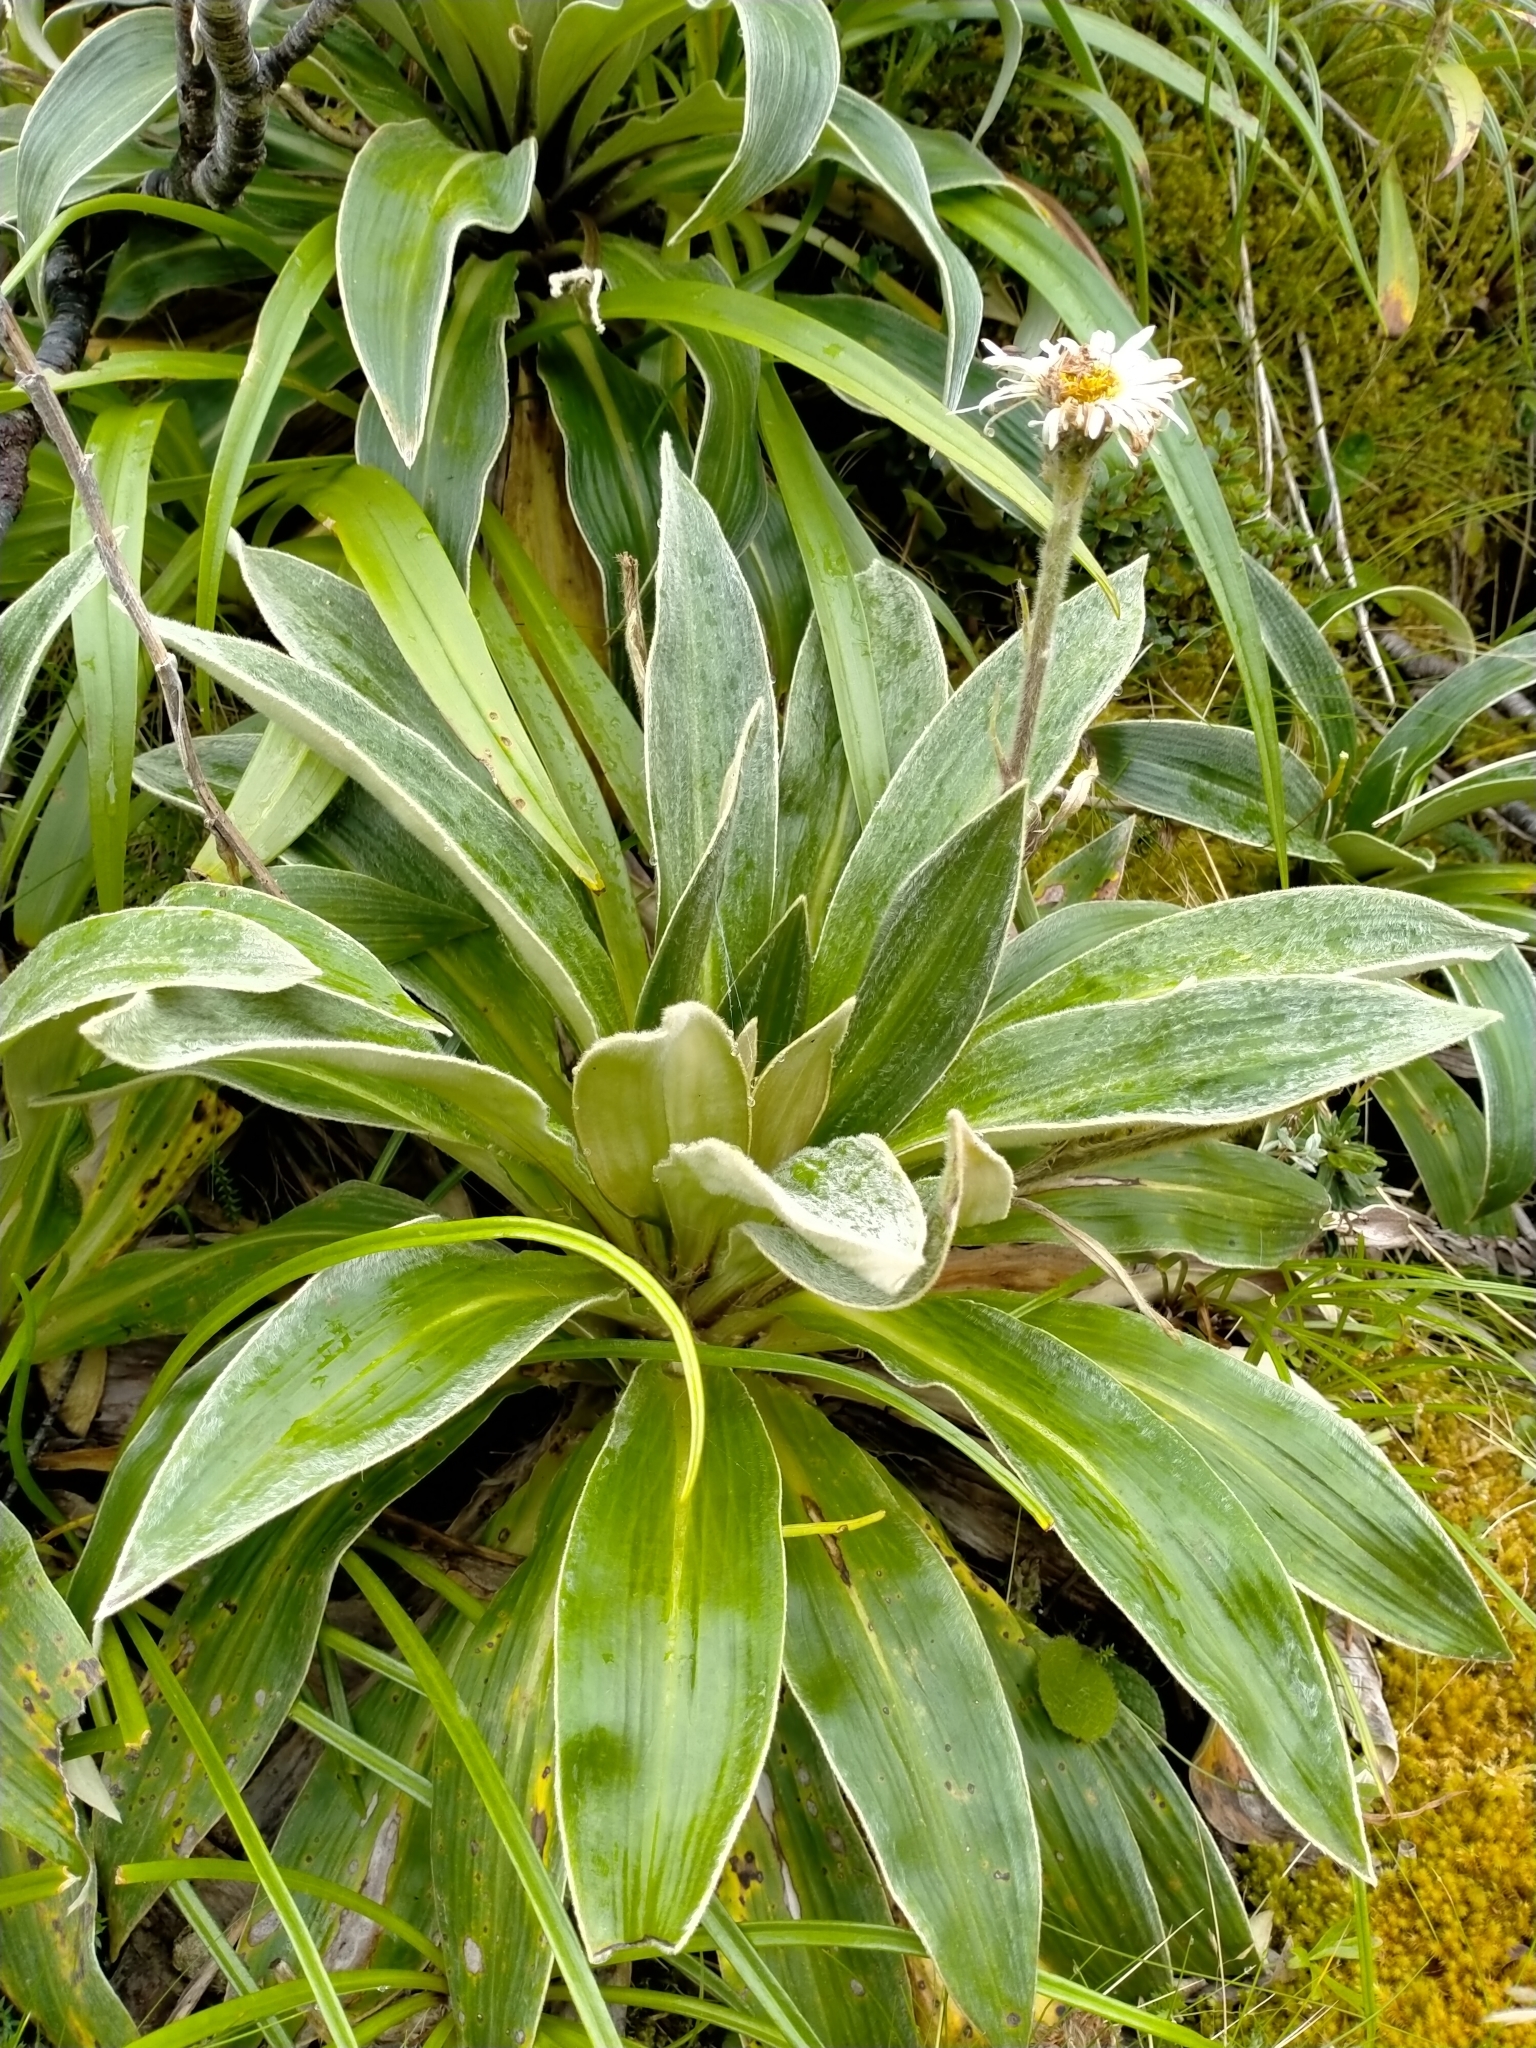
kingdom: Plantae
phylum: Tracheophyta
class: Magnoliopsida
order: Asterales
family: Asteraceae
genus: Celmisia
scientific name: Celmisia verbascifolia
